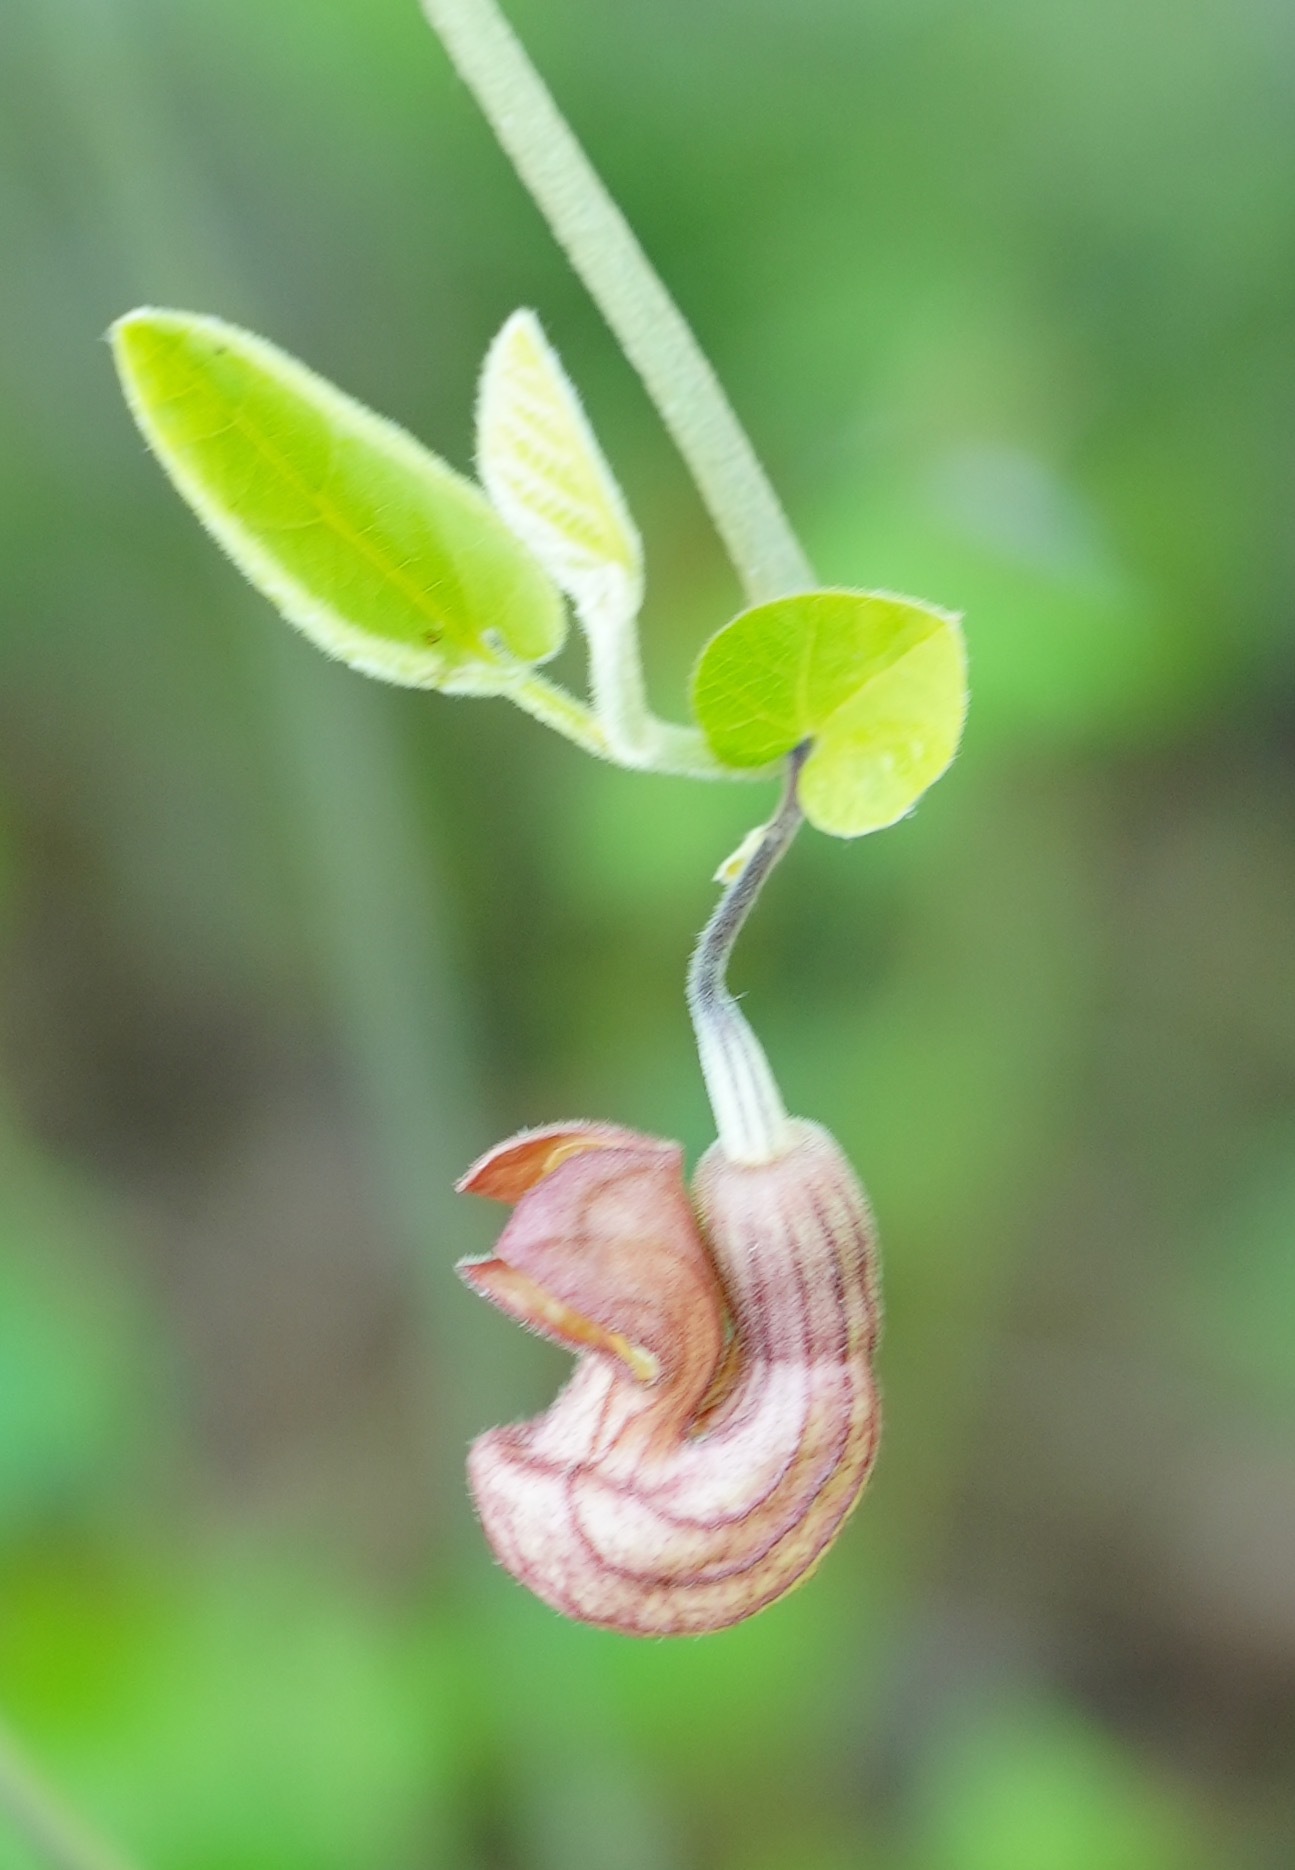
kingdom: Plantae
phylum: Tracheophyta
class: Magnoliopsida
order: Piperales
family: Aristolochiaceae
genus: Isotrema
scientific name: Isotrema californicum
